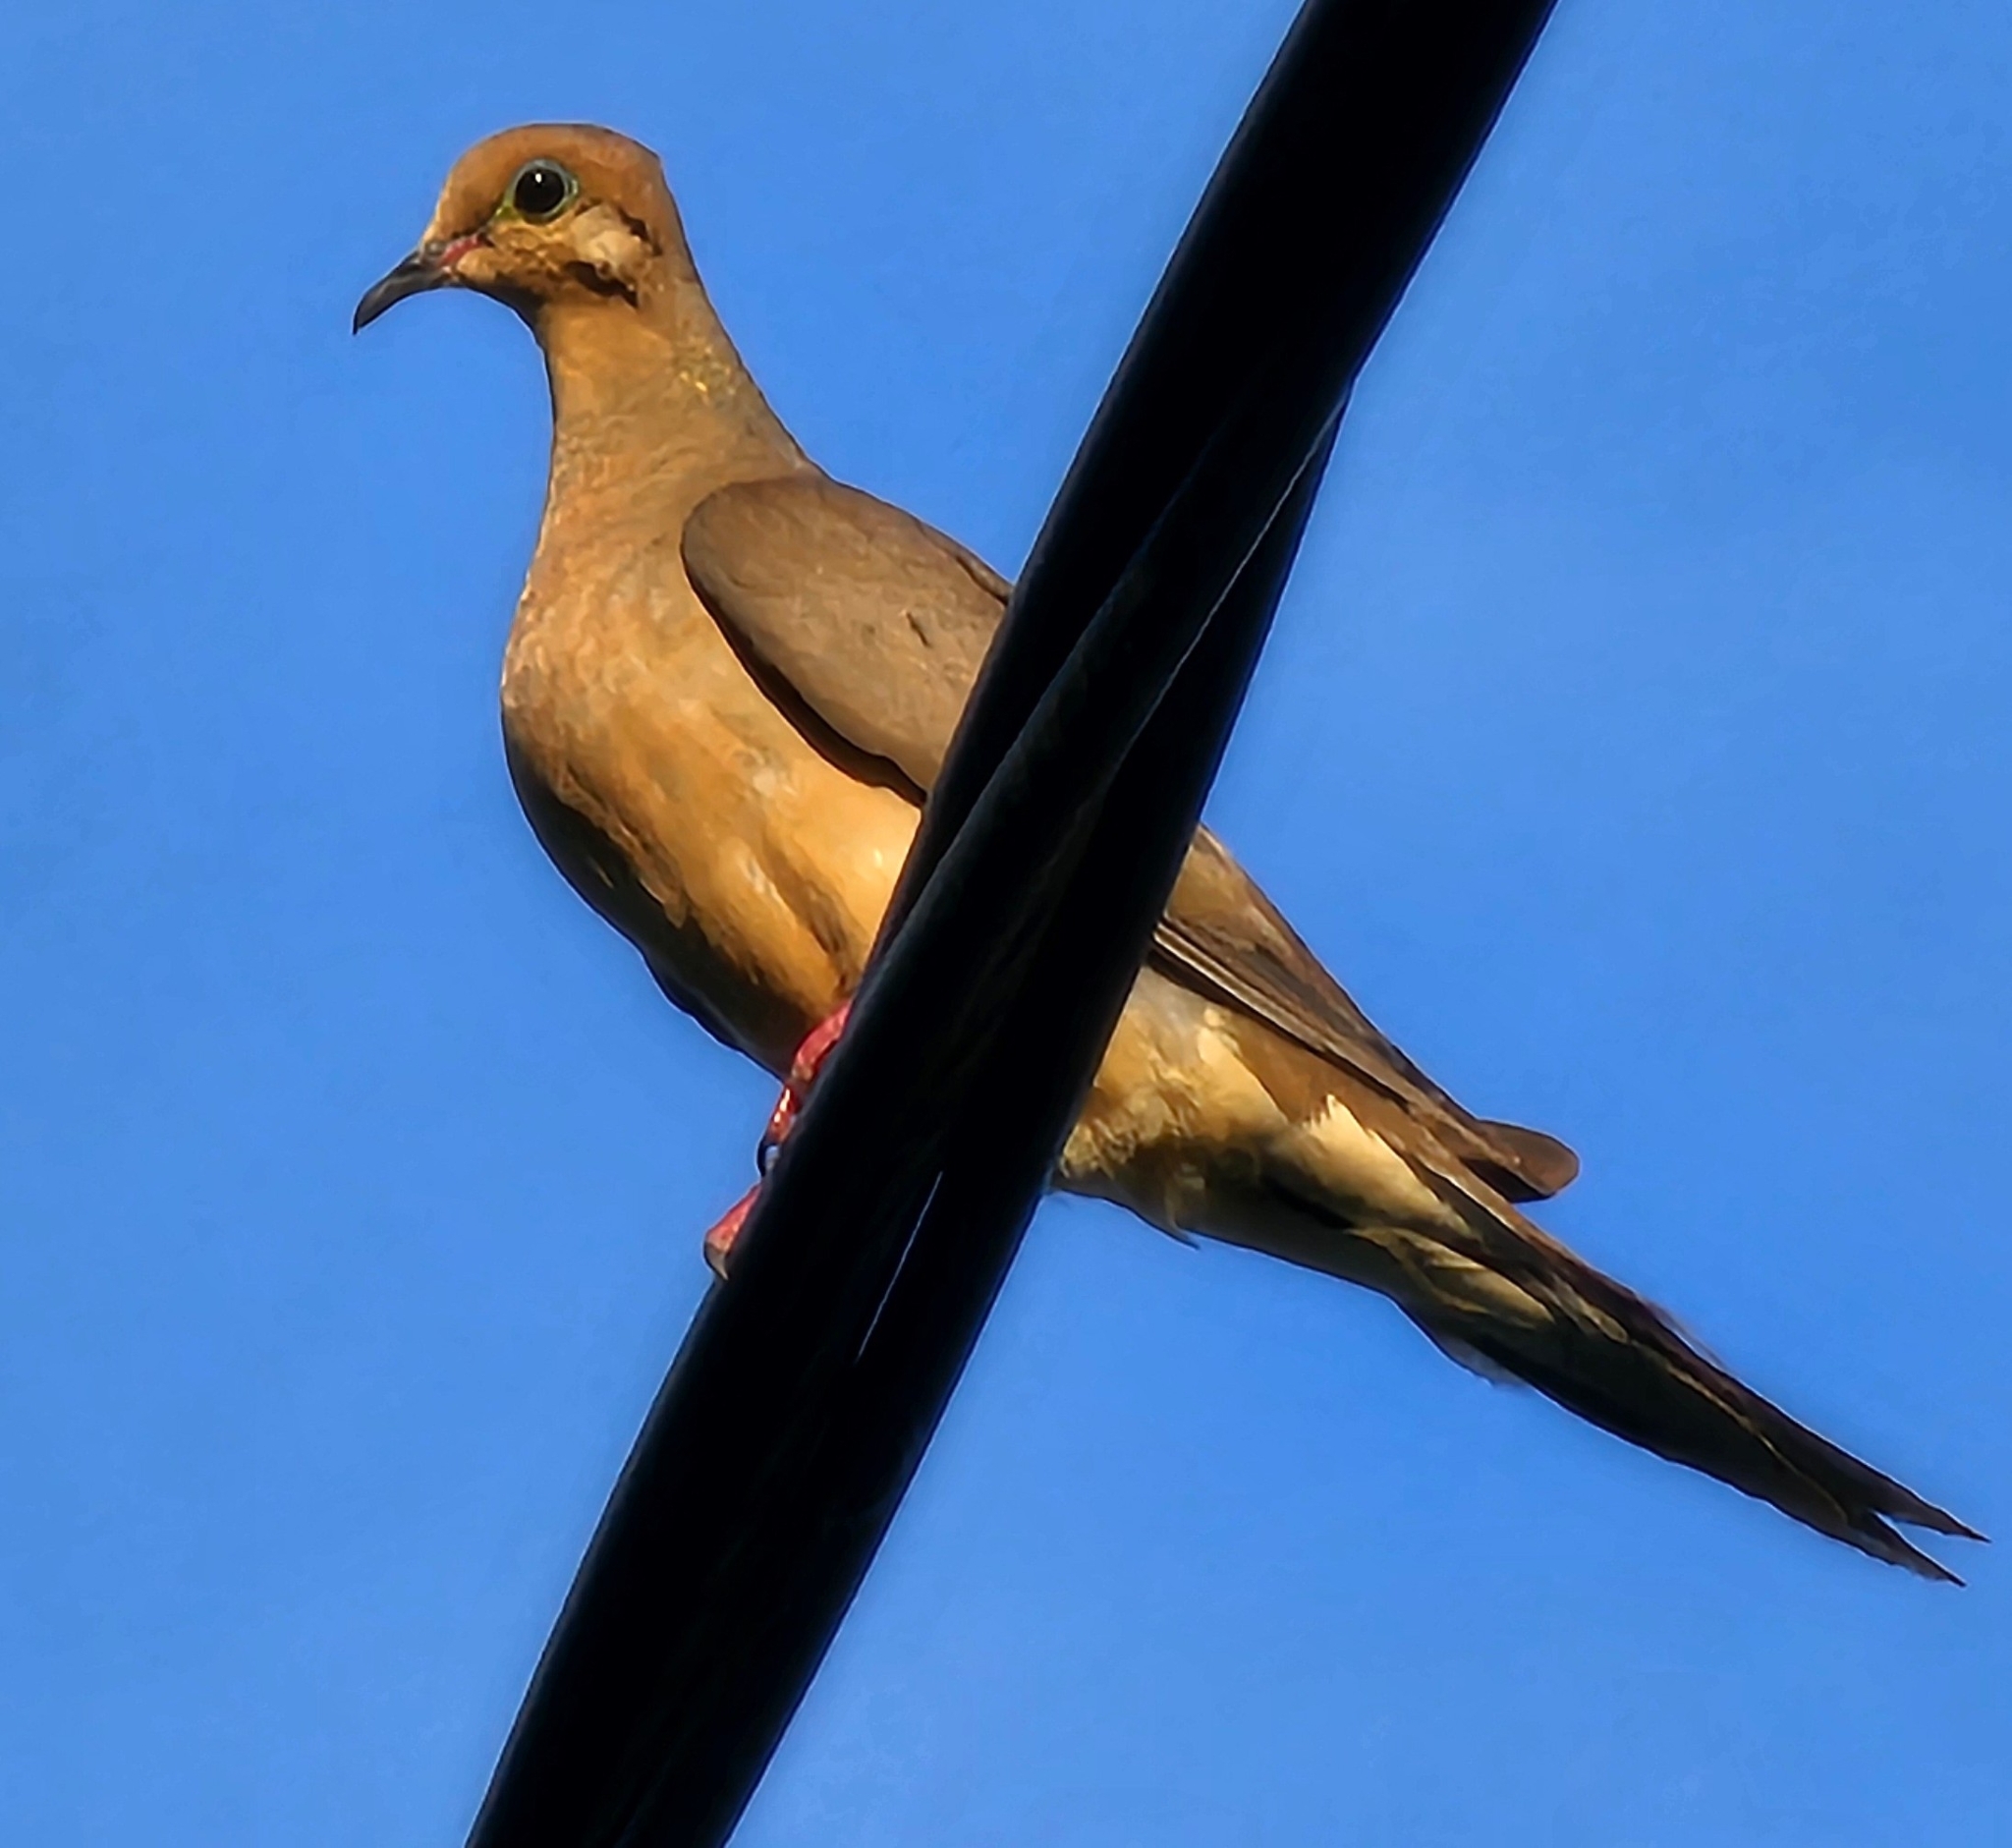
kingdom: Animalia
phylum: Chordata
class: Aves
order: Columbiformes
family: Columbidae
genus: Zenaida
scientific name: Zenaida macroura
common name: Mourning dove
